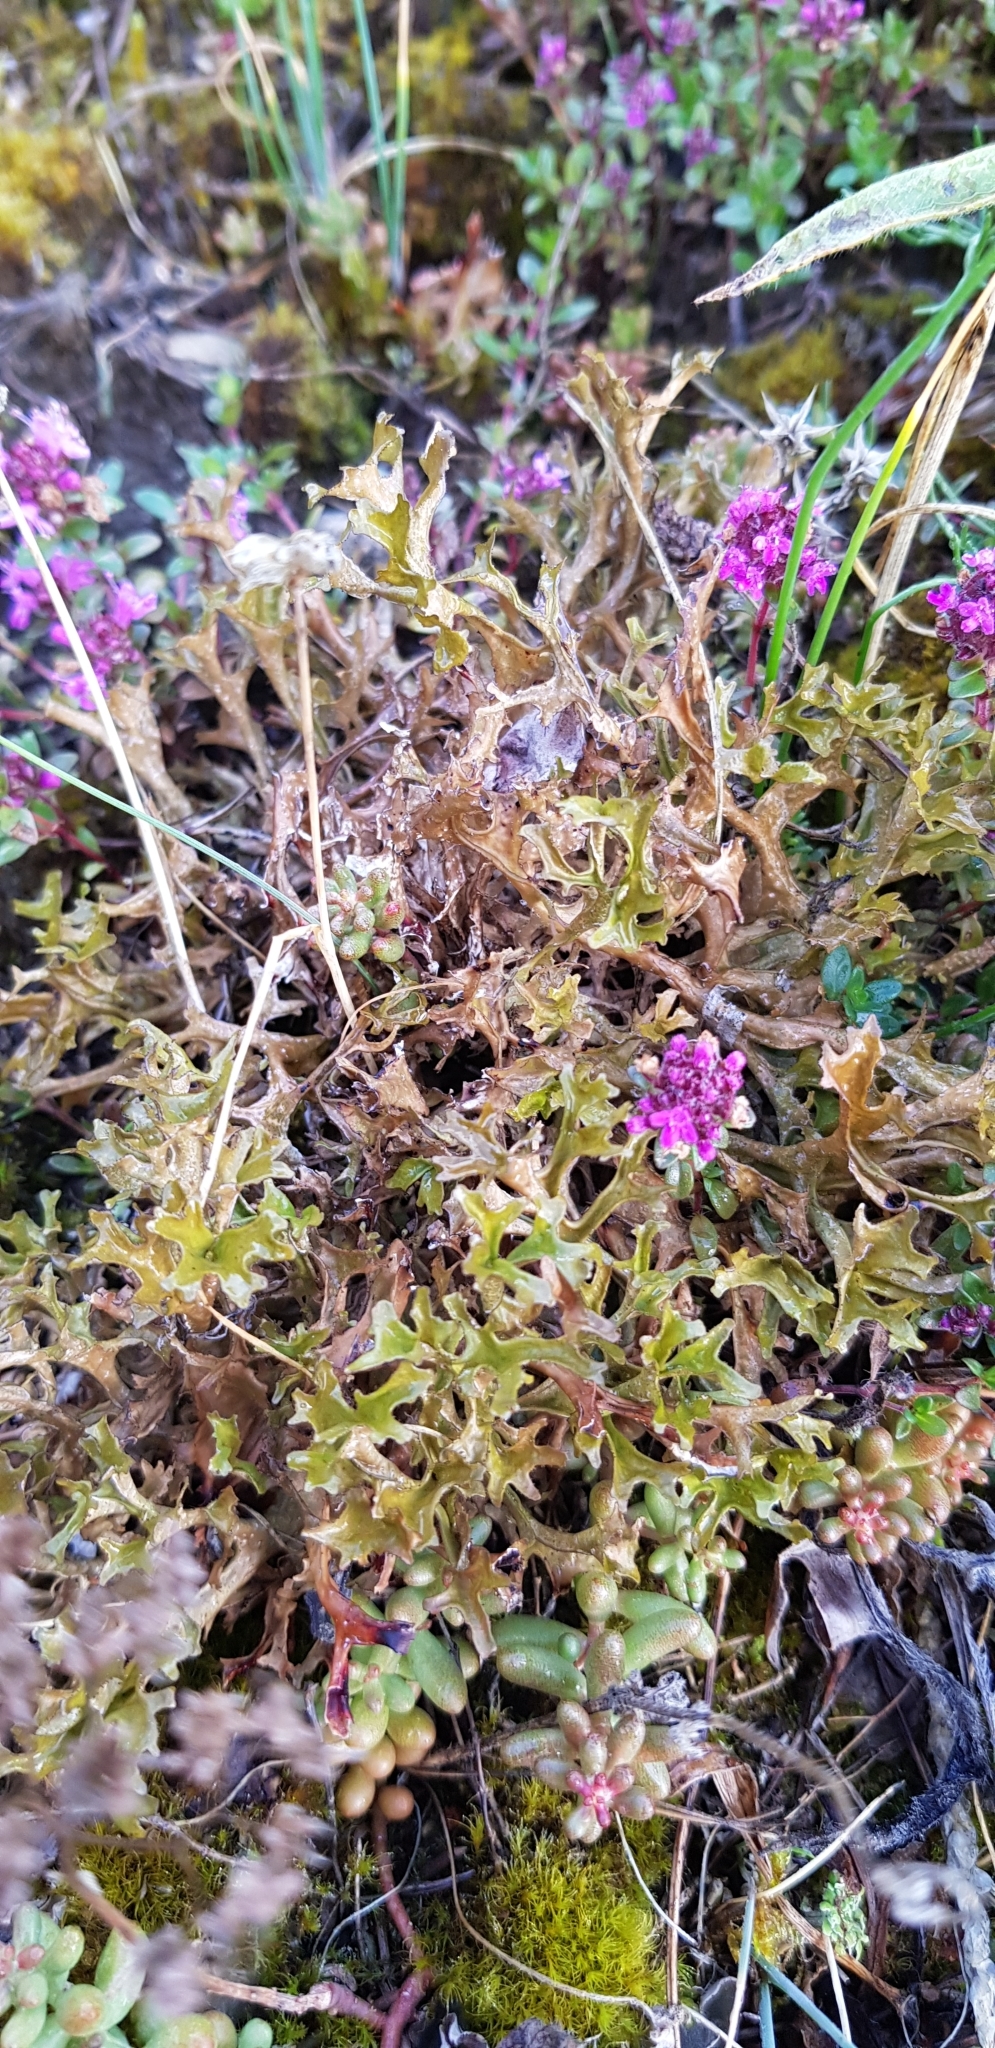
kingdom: Fungi
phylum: Ascomycota
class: Lecanoromycetes
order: Lecanorales
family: Parmeliaceae
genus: Cetraria
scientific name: Cetraria islandica
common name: Iceland lichen
